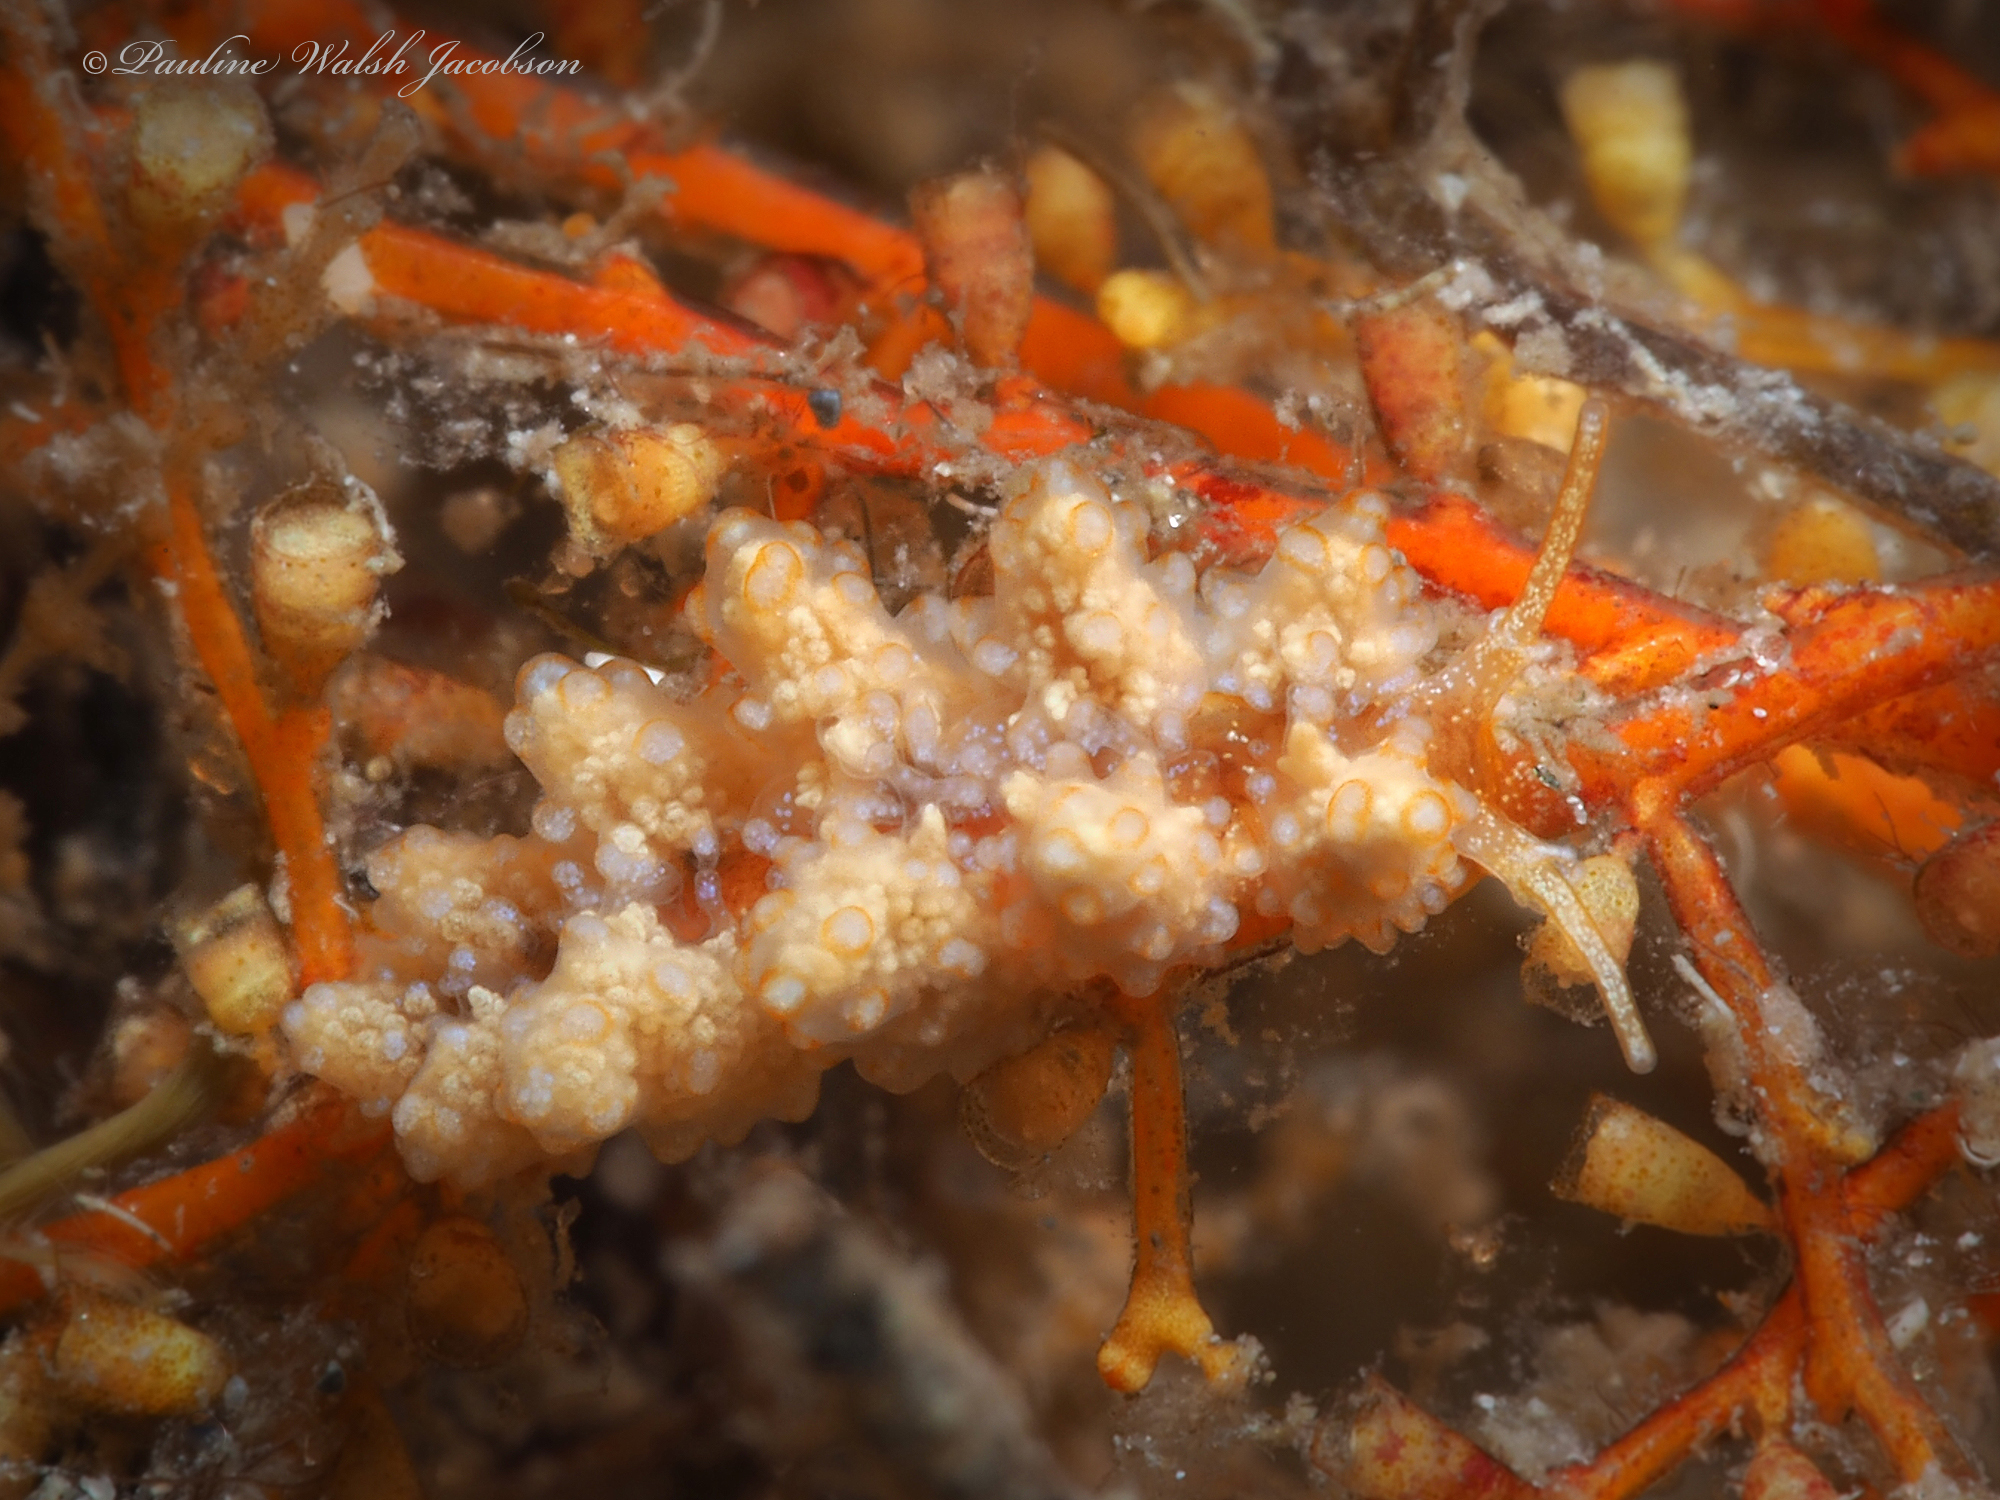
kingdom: Animalia
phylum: Mollusca
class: Gastropoda
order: Nudibranchia
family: Dotidae
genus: Doto
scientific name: Doto torrelavega
